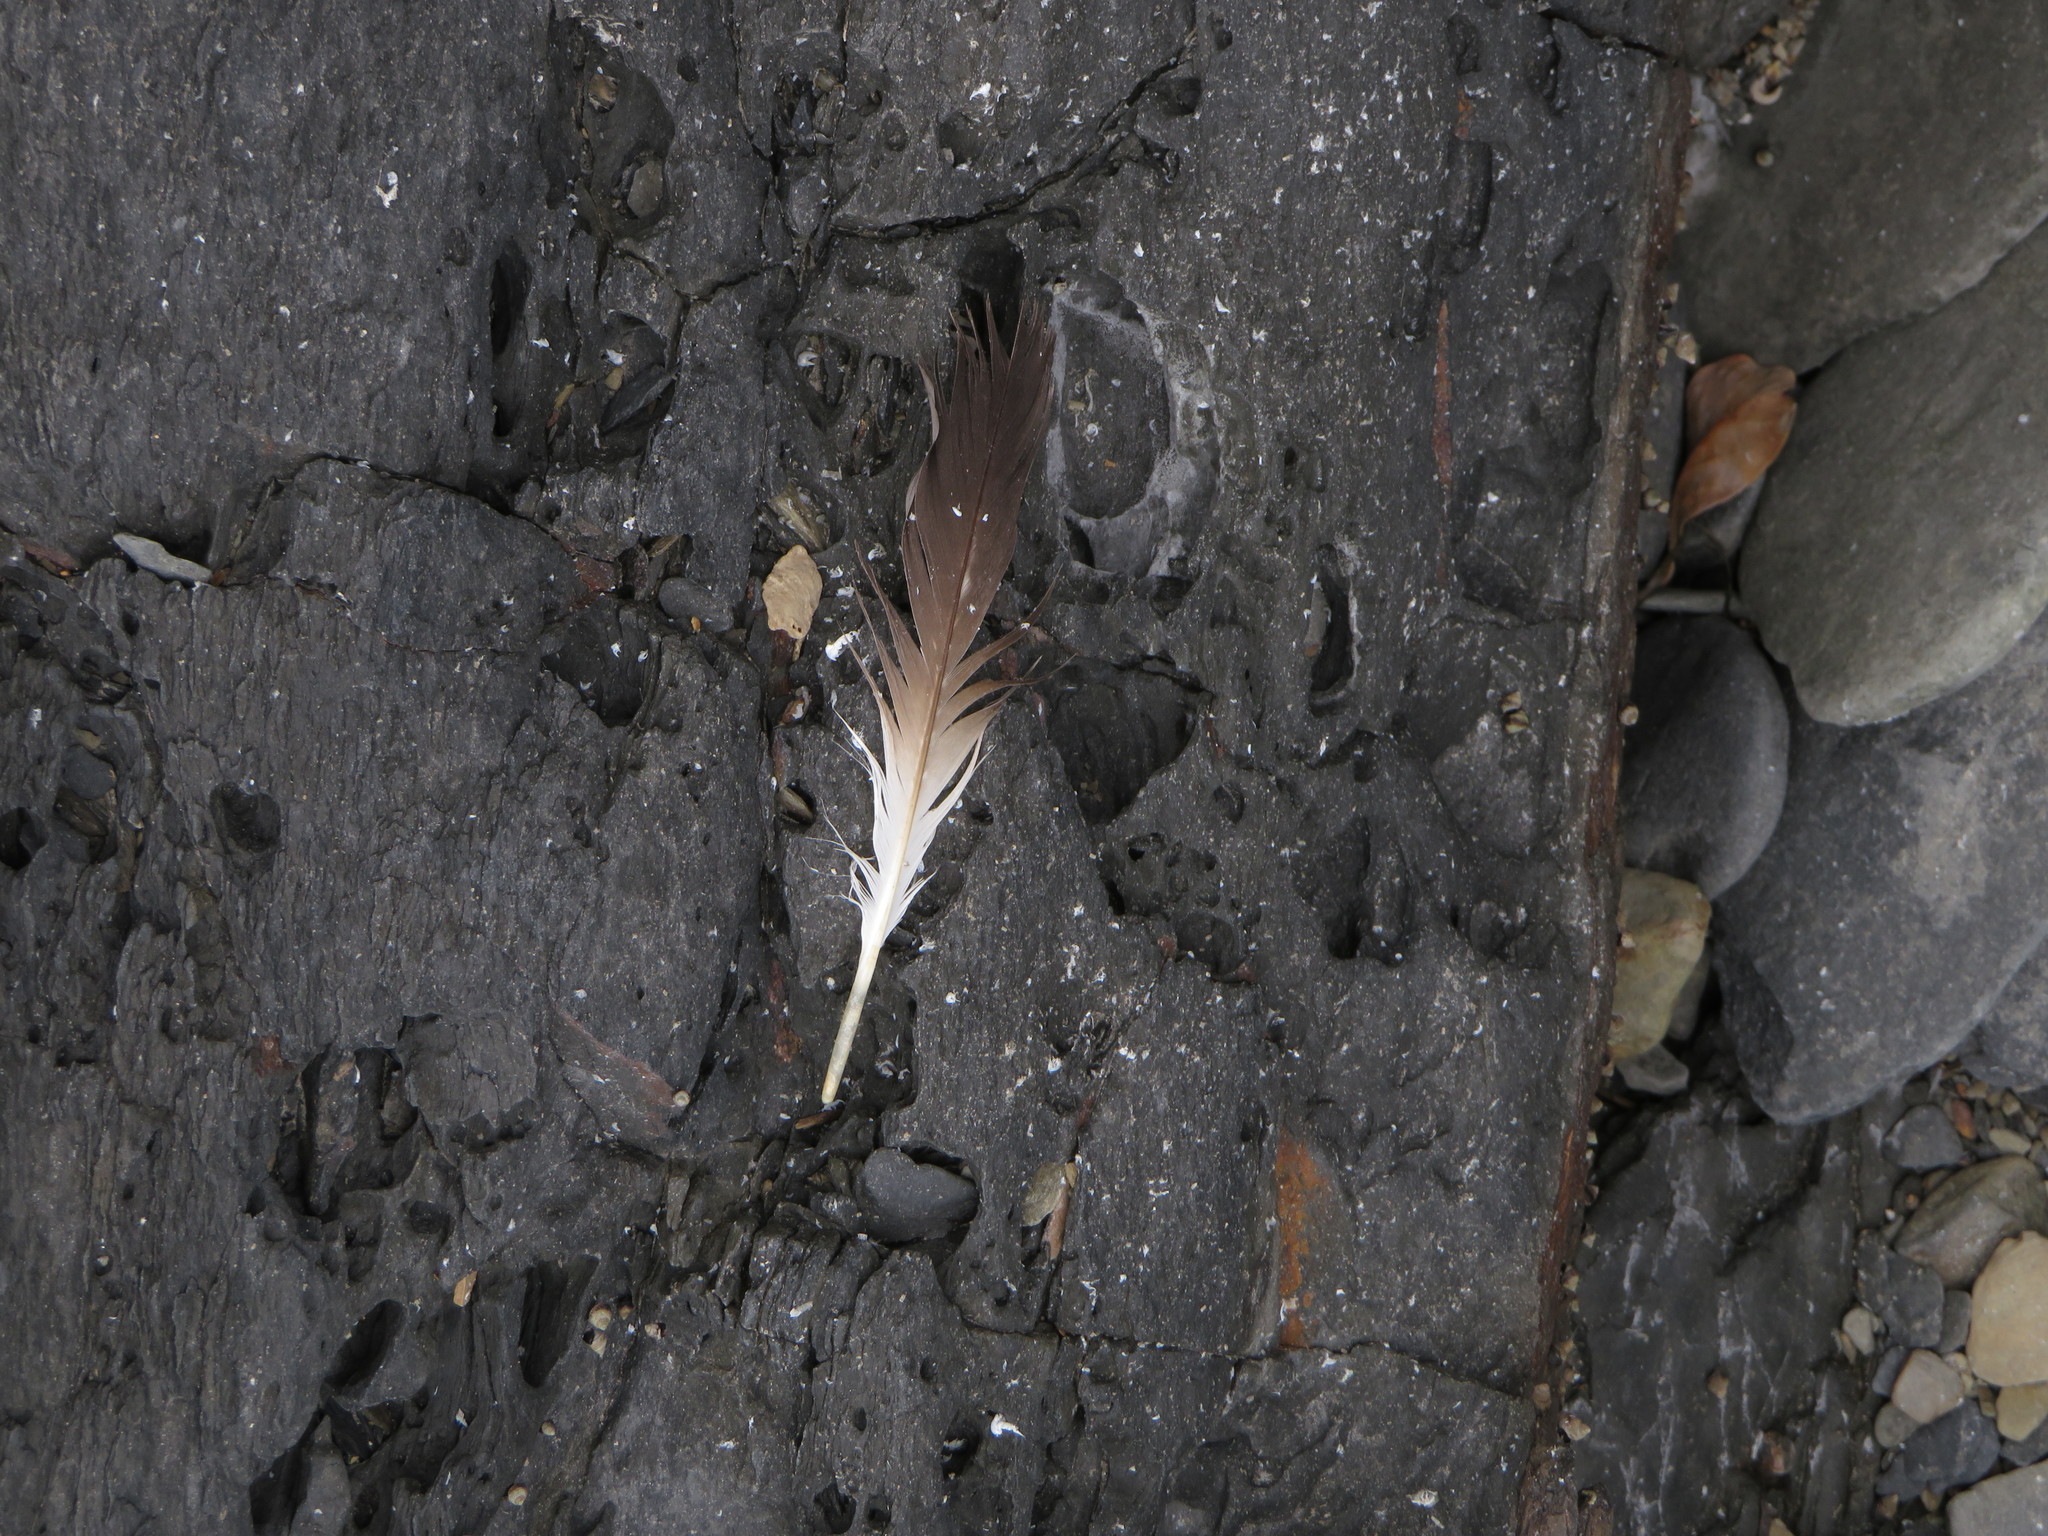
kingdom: Animalia
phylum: Chordata
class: Aves
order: Suliformes
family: Sulidae
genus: Morus
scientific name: Morus capensis
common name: Cape gannet
